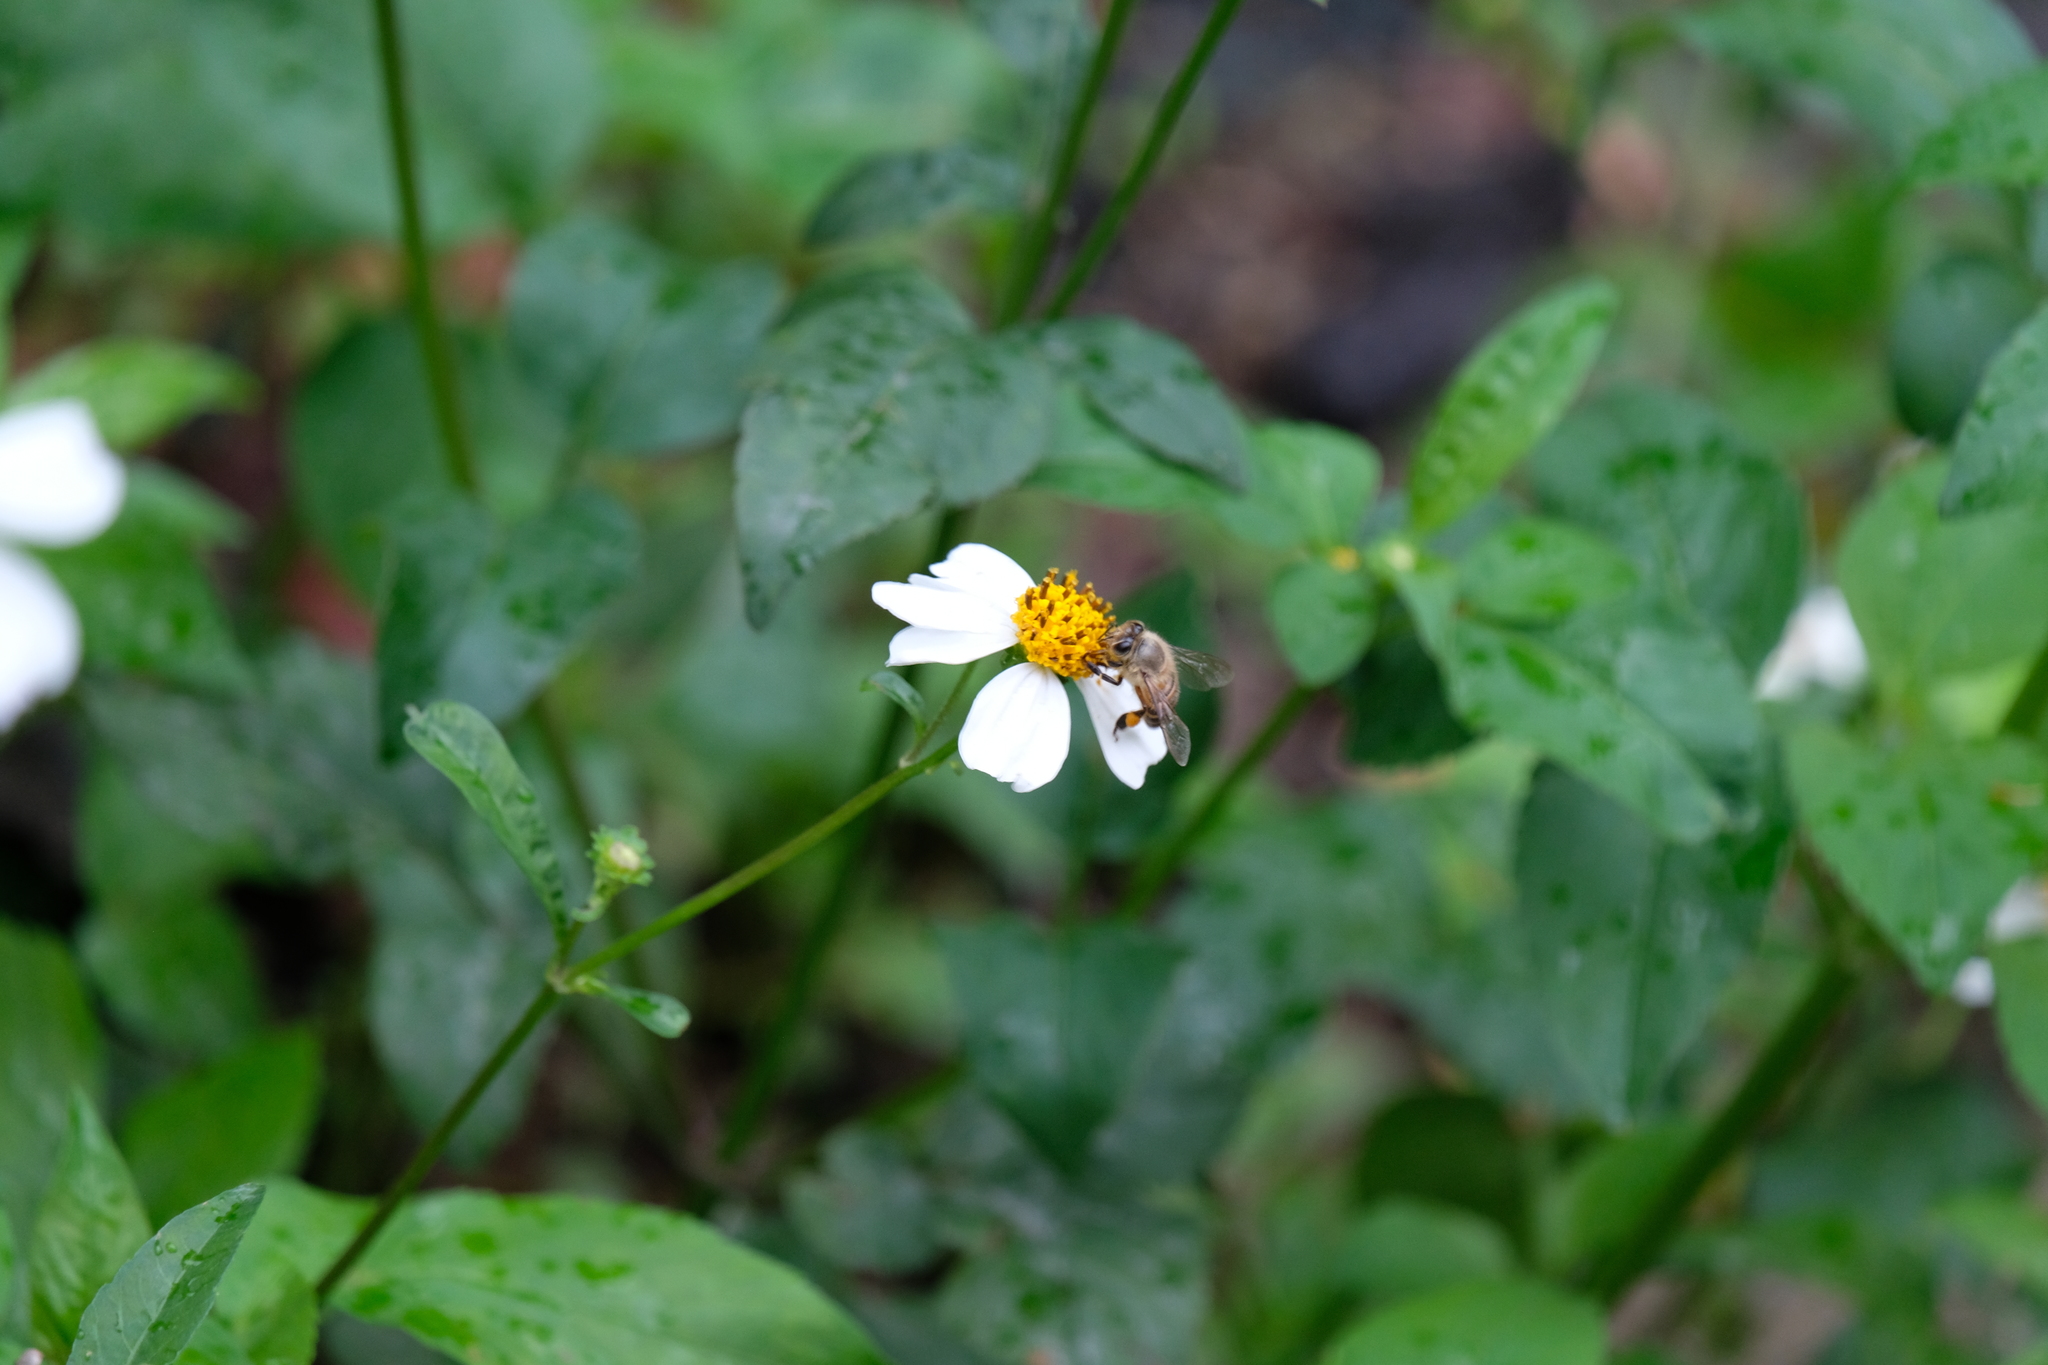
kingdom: Animalia
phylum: Arthropoda
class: Insecta
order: Hymenoptera
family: Apidae
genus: Apis
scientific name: Apis cerana
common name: Honey bee
